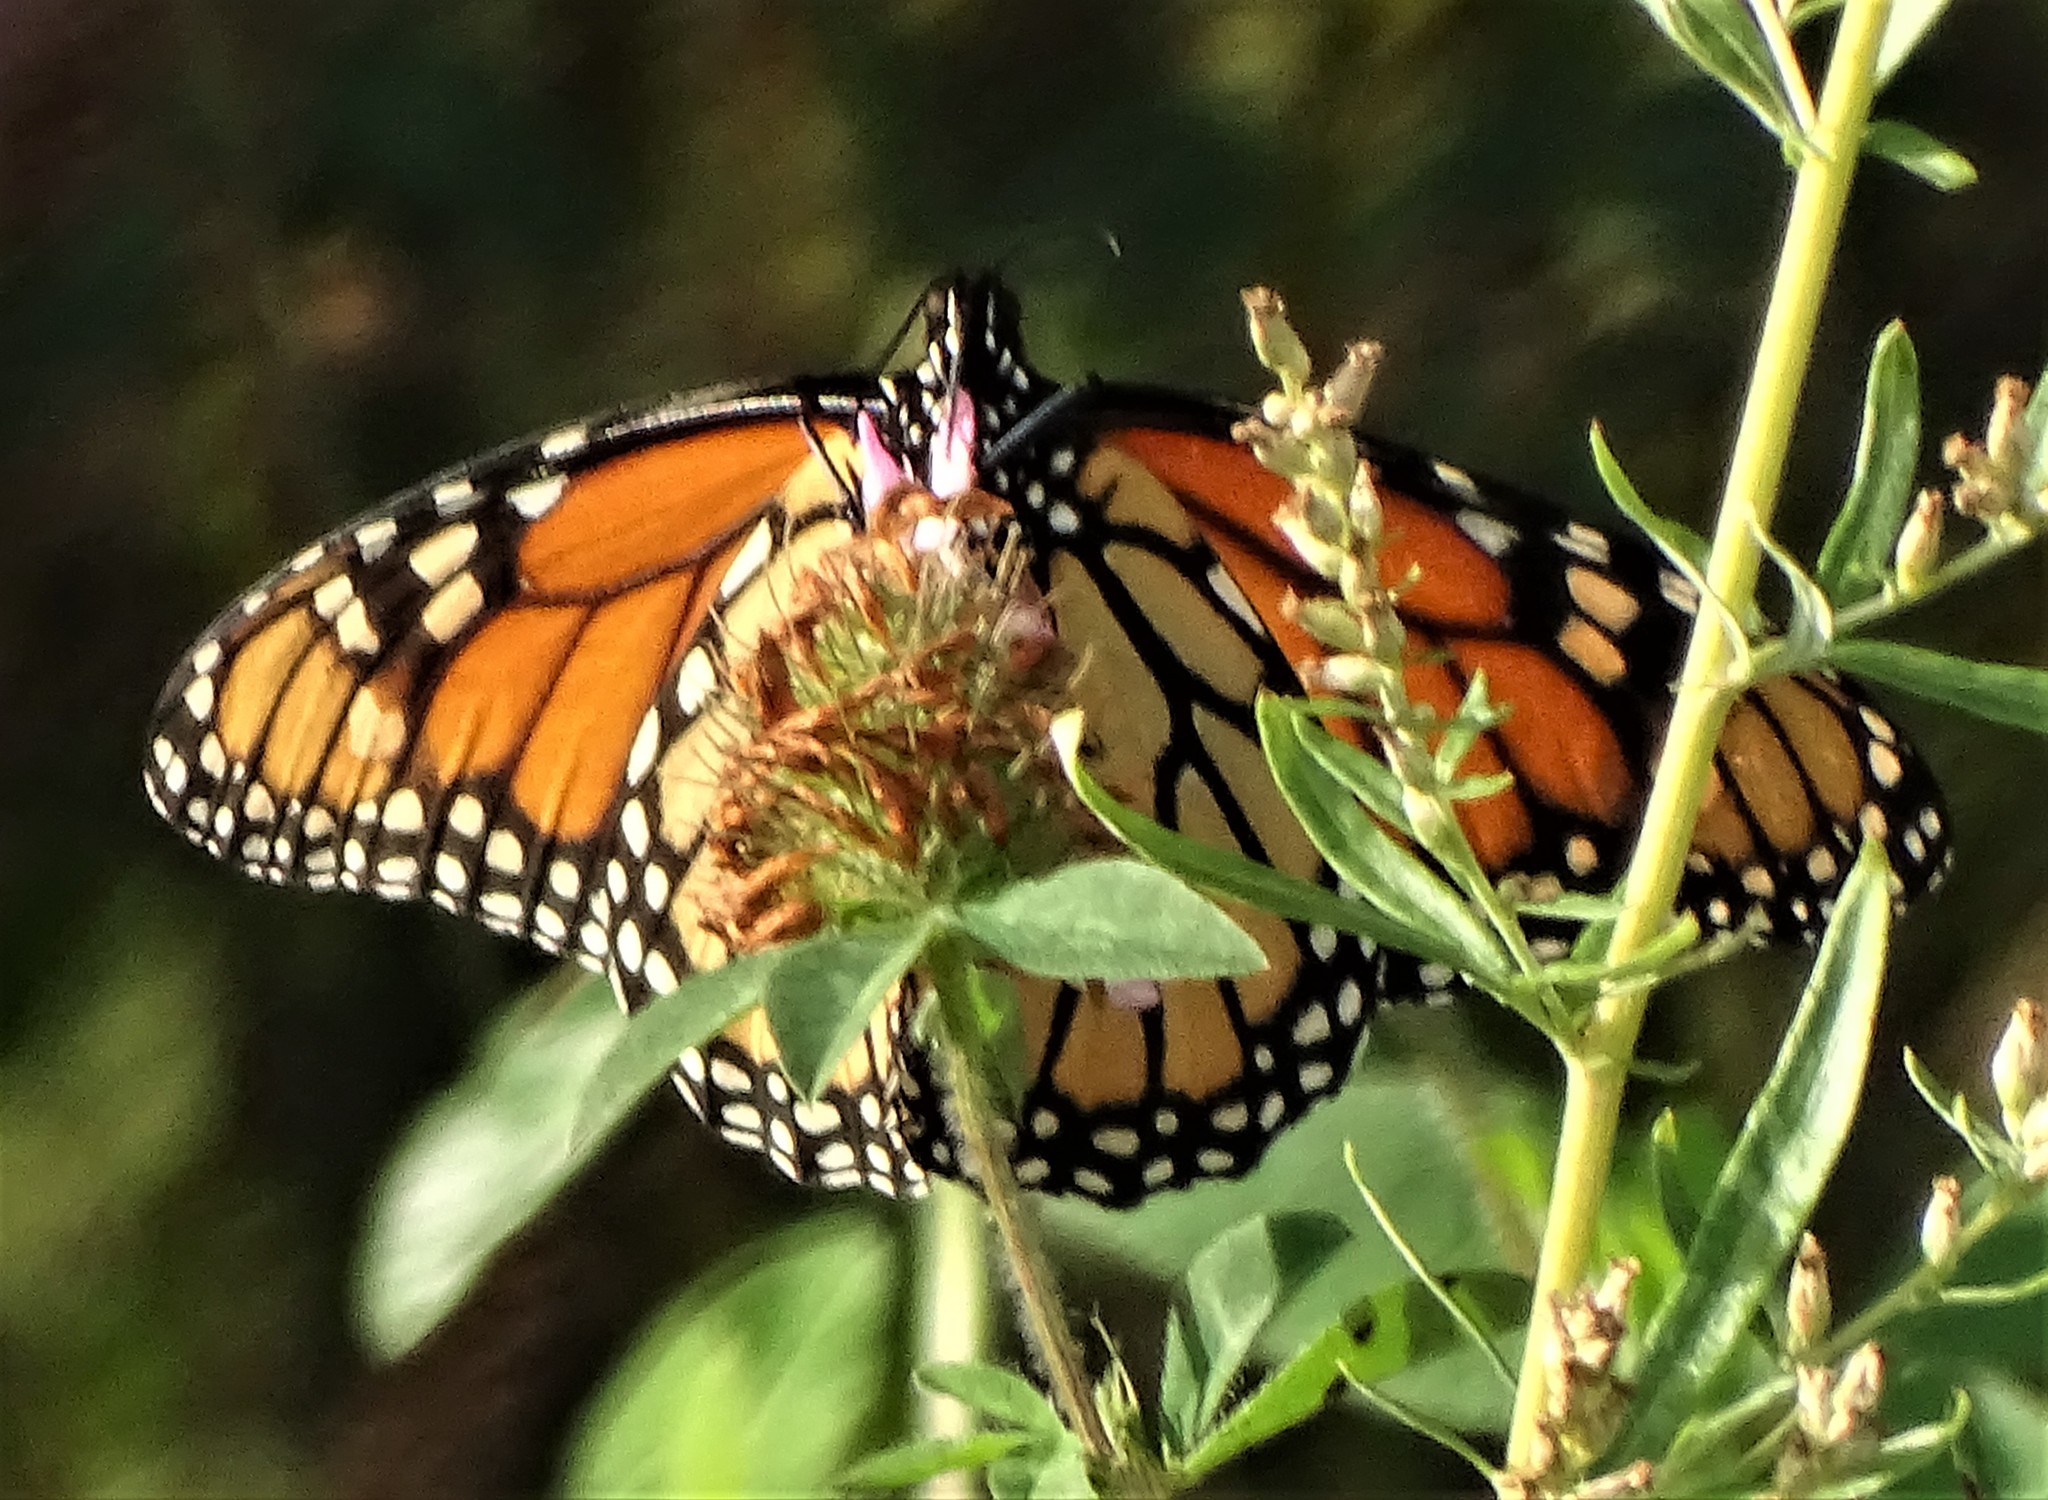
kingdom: Animalia
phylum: Arthropoda
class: Insecta
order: Lepidoptera
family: Nymphalidae
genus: Danaus
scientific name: Danaus plexippus
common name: Monarch
